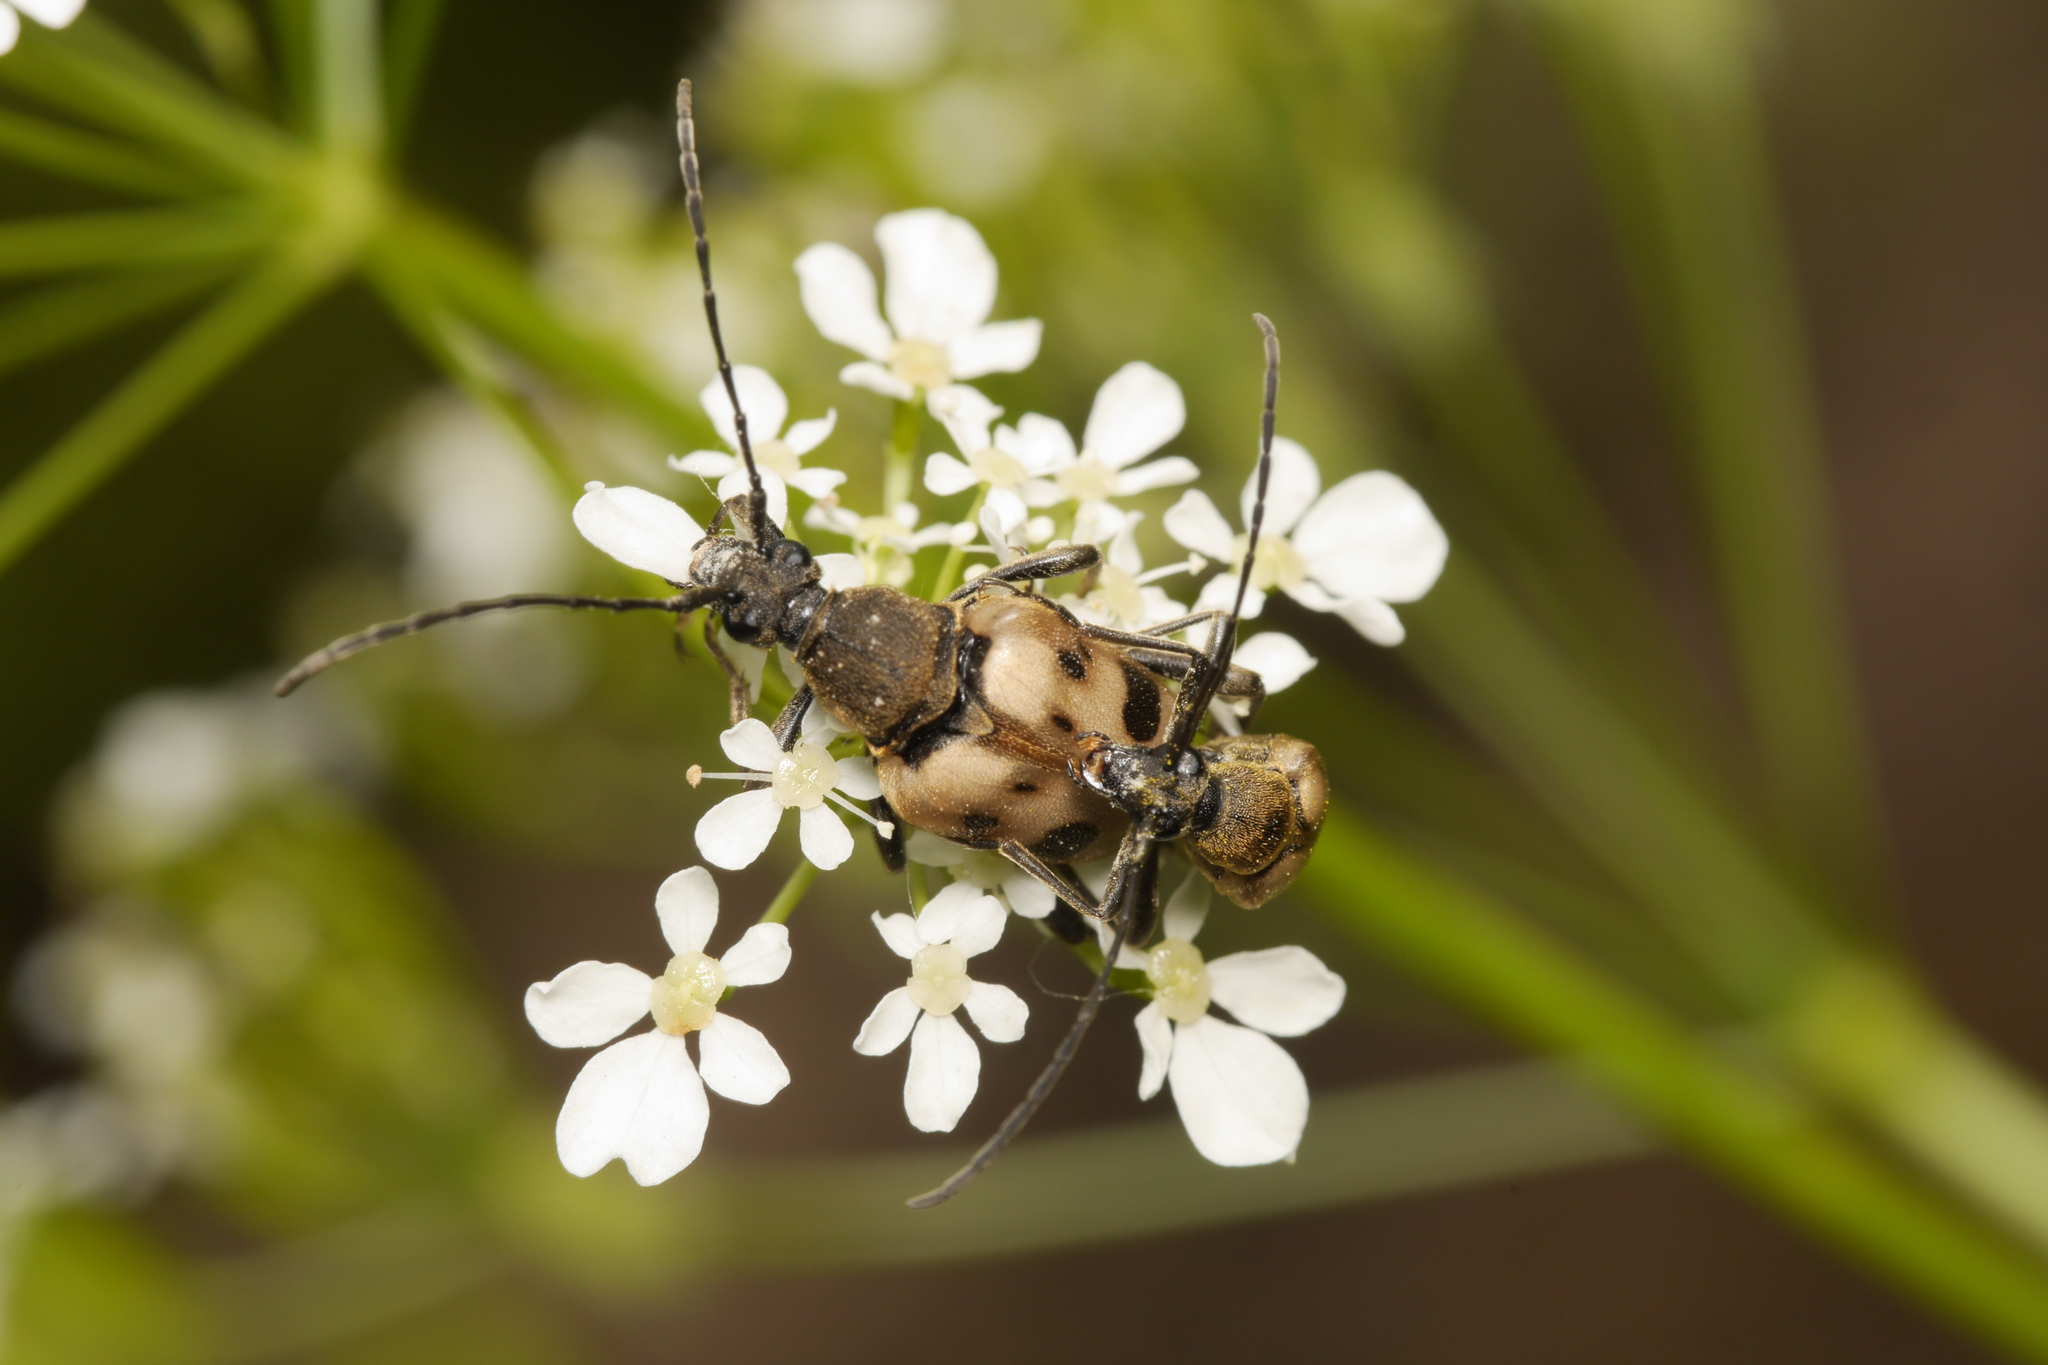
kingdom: Animalia
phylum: Arthropoda
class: Insecta
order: Coleoptera
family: Cerambycidae
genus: Pachytodes
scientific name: Pachytodes cerambyciformis
